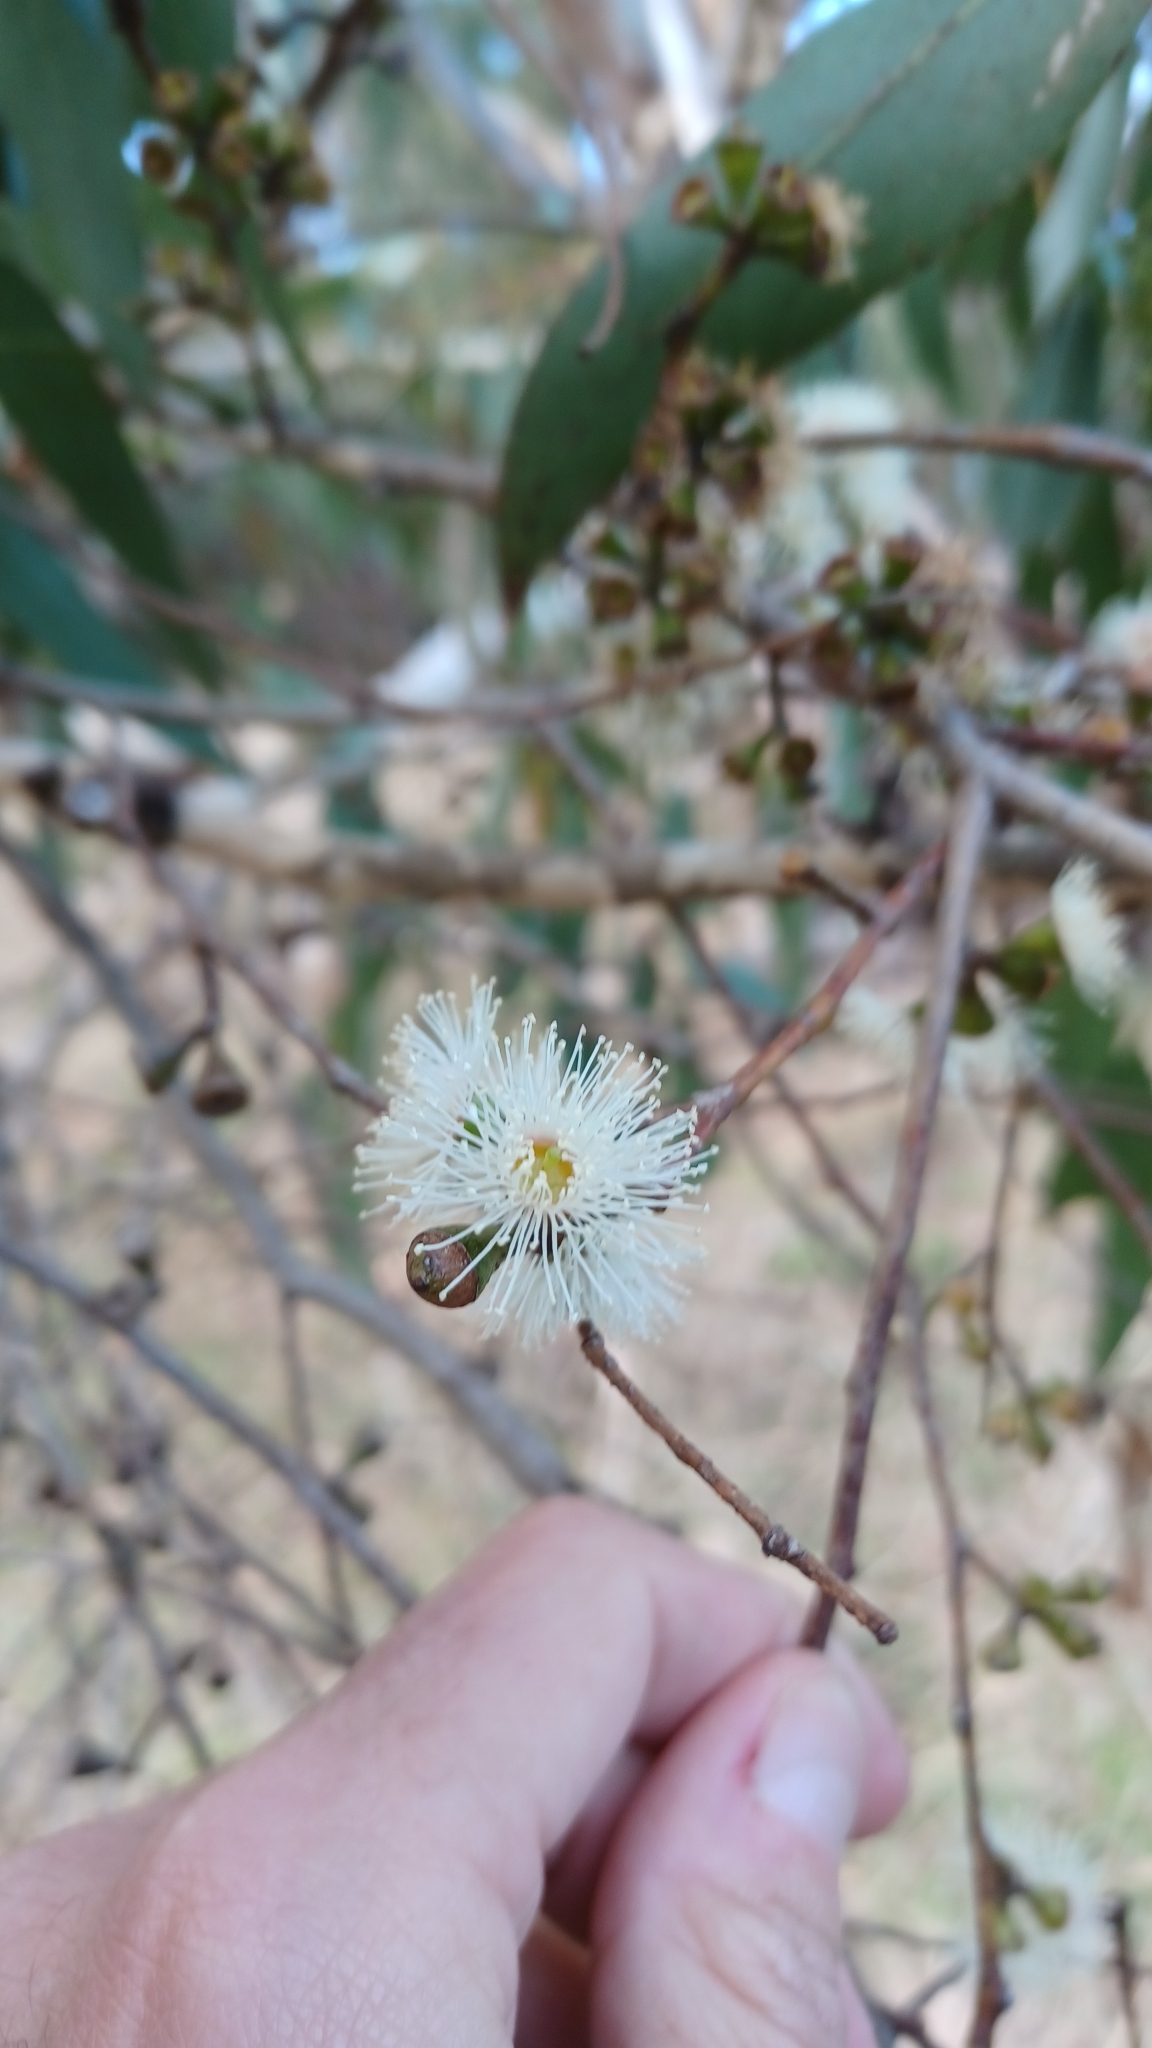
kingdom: Plantae
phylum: Tracheophyta
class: Magnoliopsida
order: Myrtales
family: Myrtaceae
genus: Eucalyptus
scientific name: Eucalyptus ovata
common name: Black-gum
